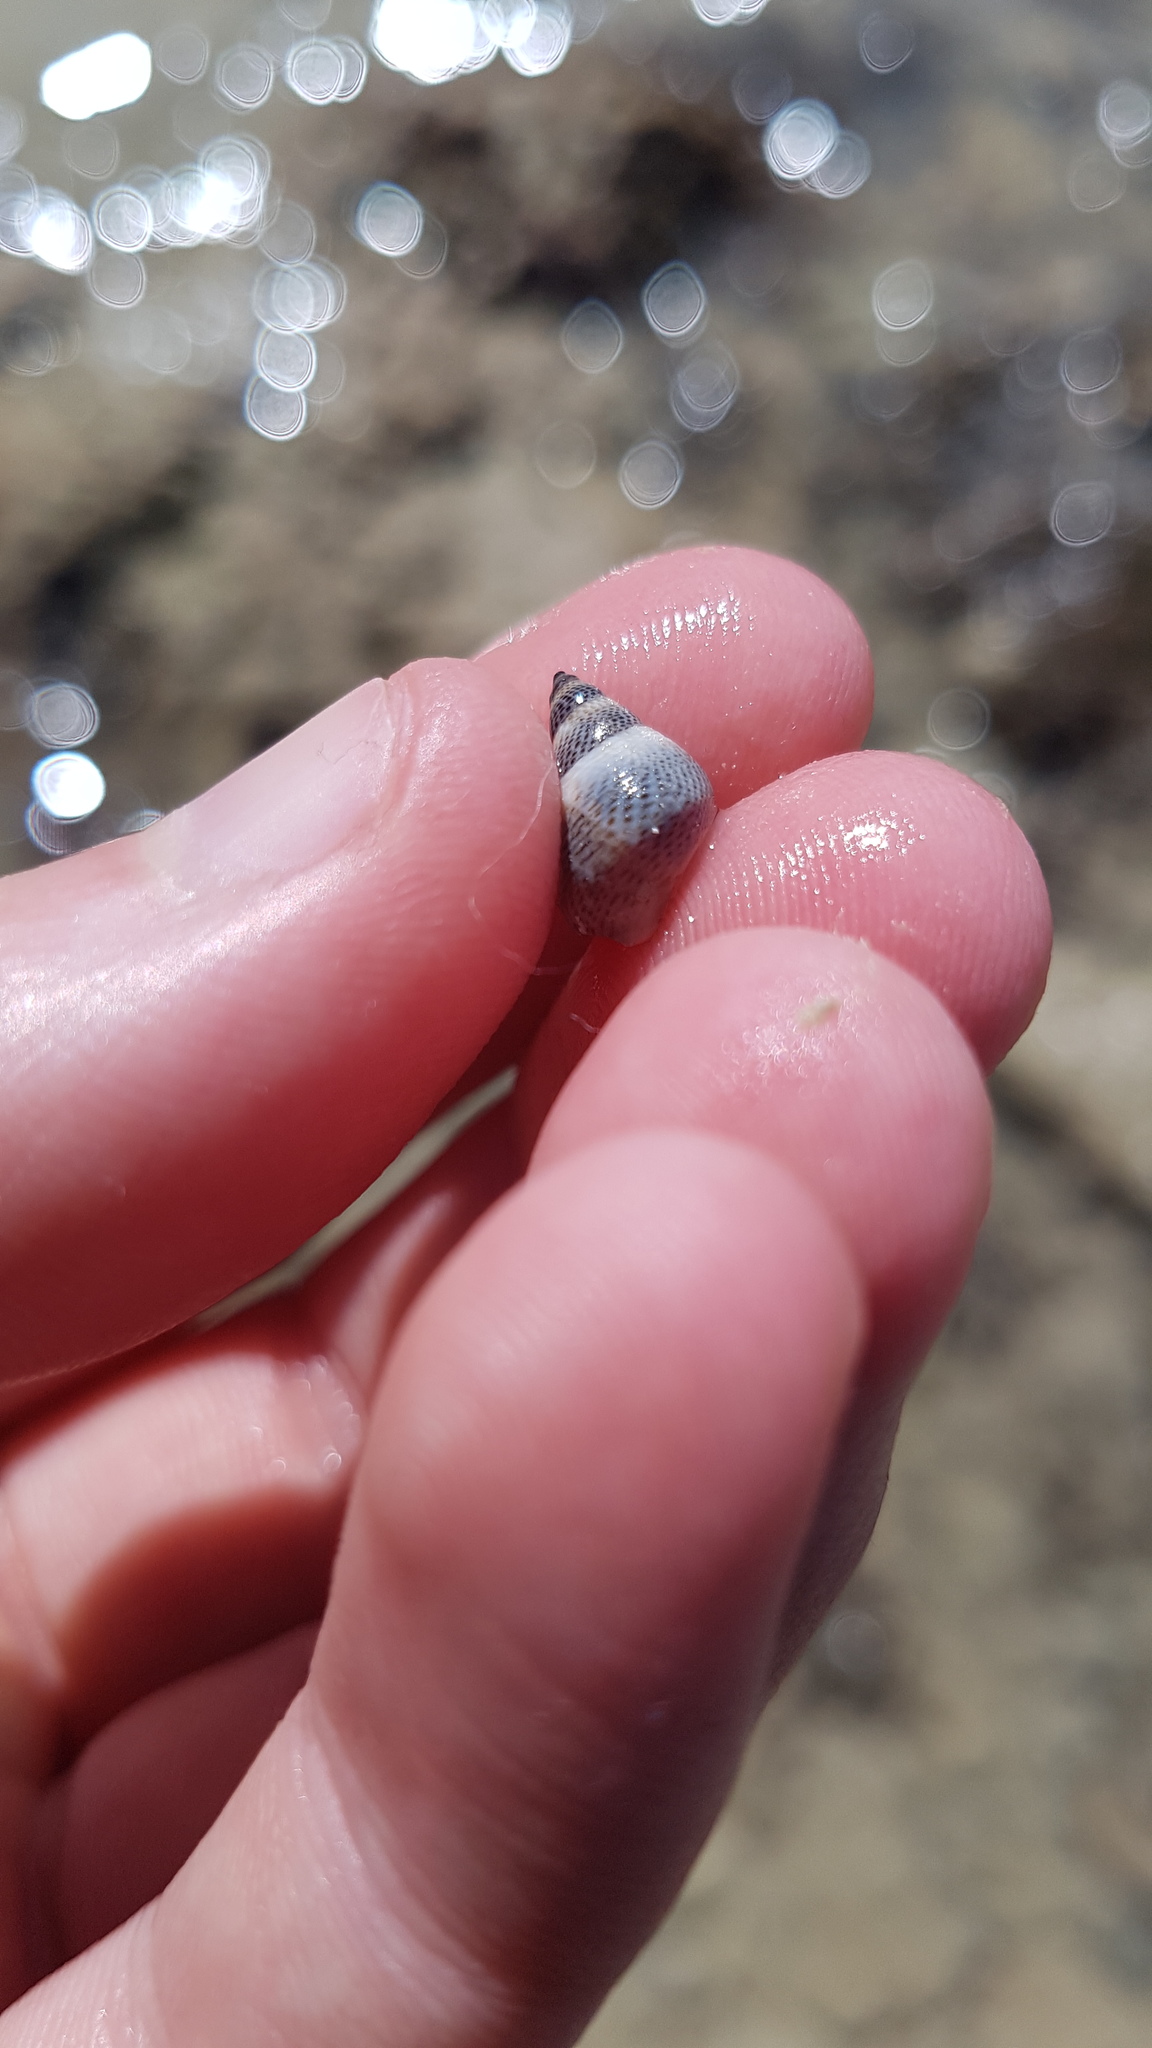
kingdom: Animalia
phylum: Mollusca
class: Gastropoda
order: Littorinimorpha
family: Littorinidae
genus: Littoraria
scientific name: Littoraria pintado
